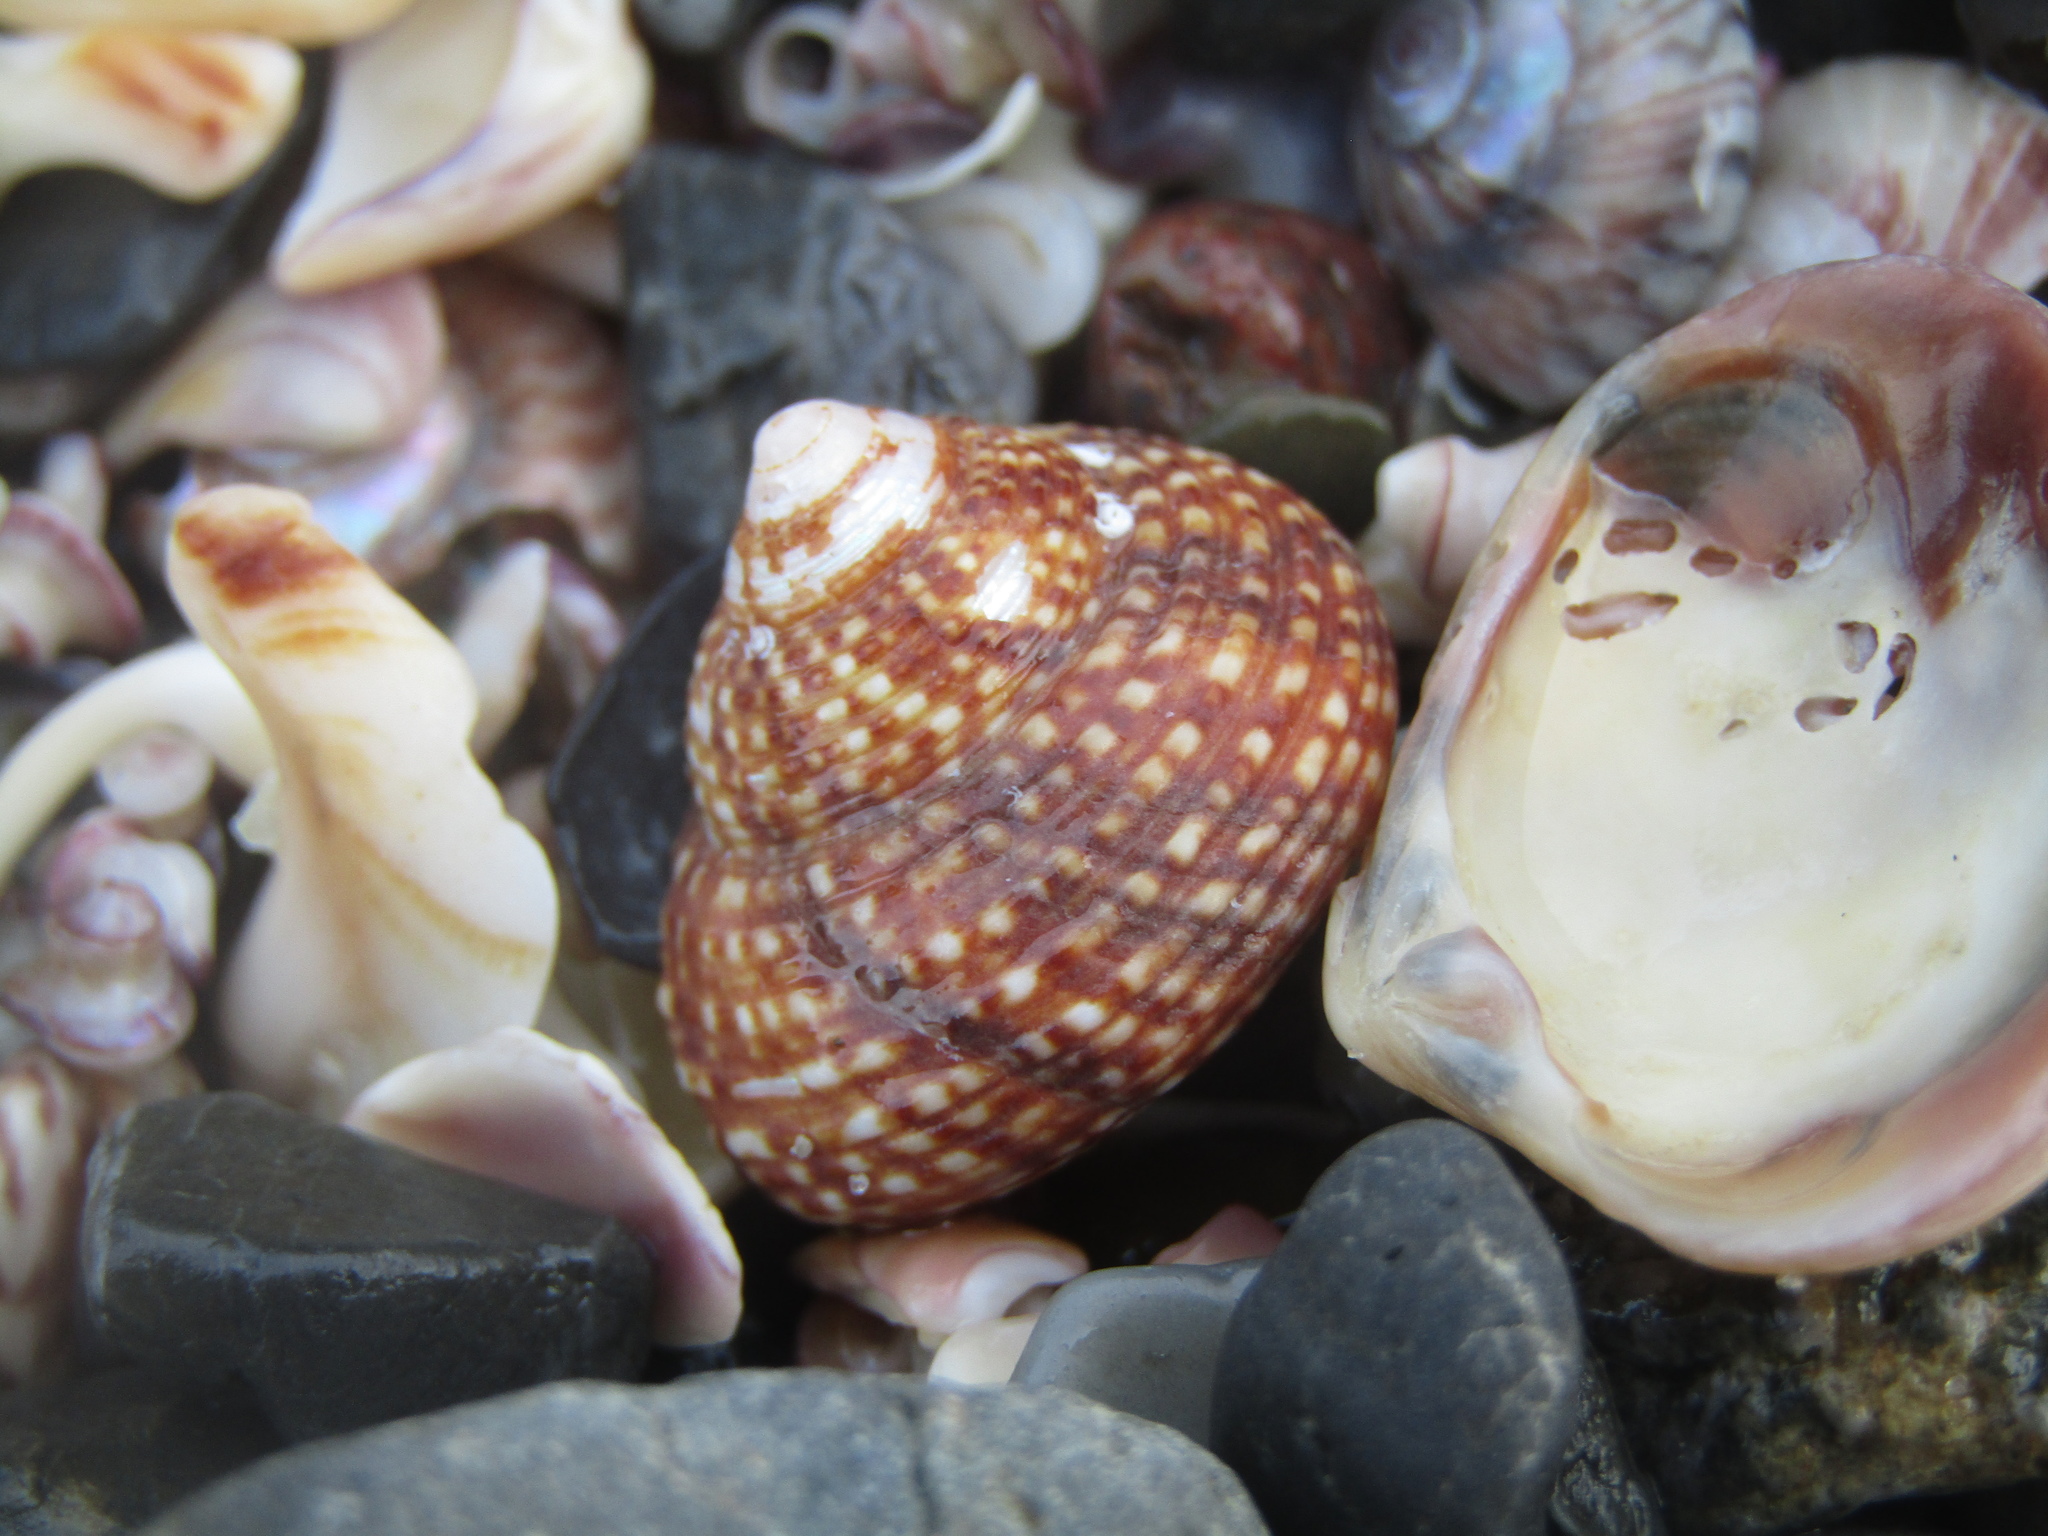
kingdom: Animalia
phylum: Mollusca
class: Gastropoda
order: Trochida
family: Calliostomatidae
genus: Maurea
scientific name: Maurea punctulata
